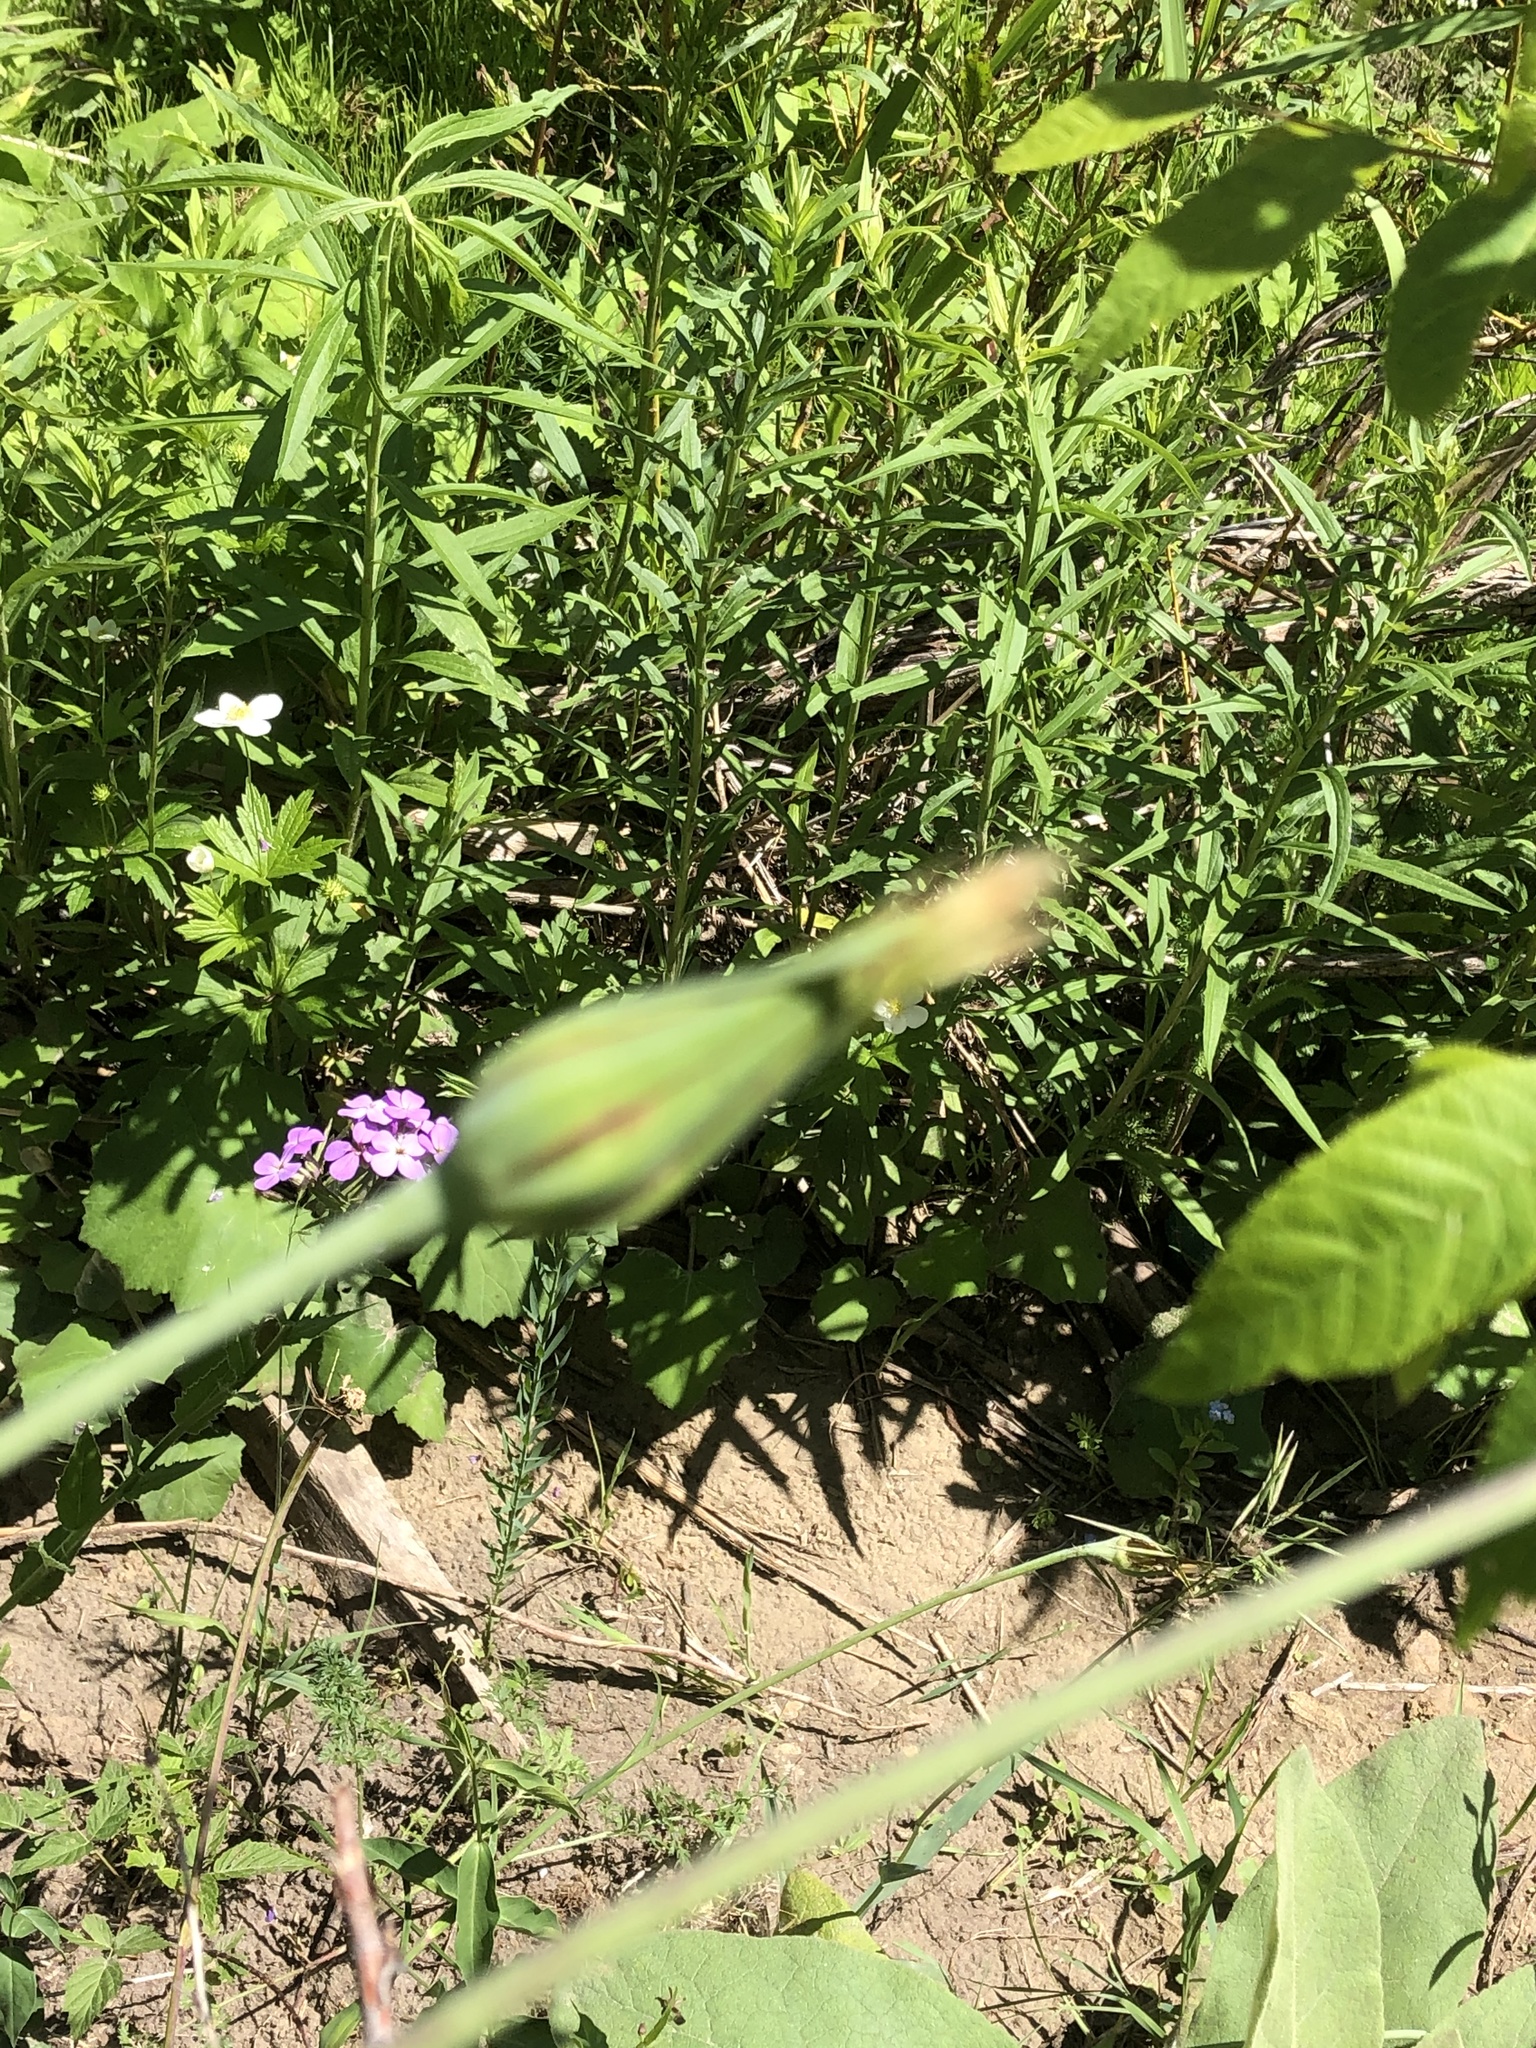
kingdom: Plantae
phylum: Tracheophyta
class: Magnoliopsida
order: Asterales
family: Asteraceae
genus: Tragopogon
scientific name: Tragopogon pratensis
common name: Goat's-beard
